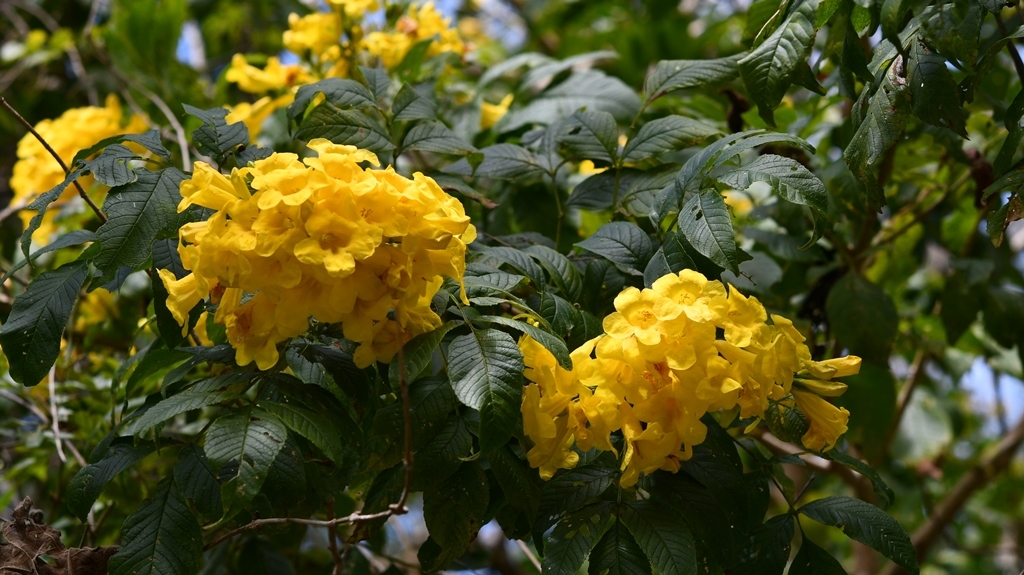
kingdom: Plantae
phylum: Tracheophyta
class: Magnoliopsida
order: Lamiales
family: Bignoniaceae
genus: Tecoma
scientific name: Tecoma stans
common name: Yellow trumpetbush
